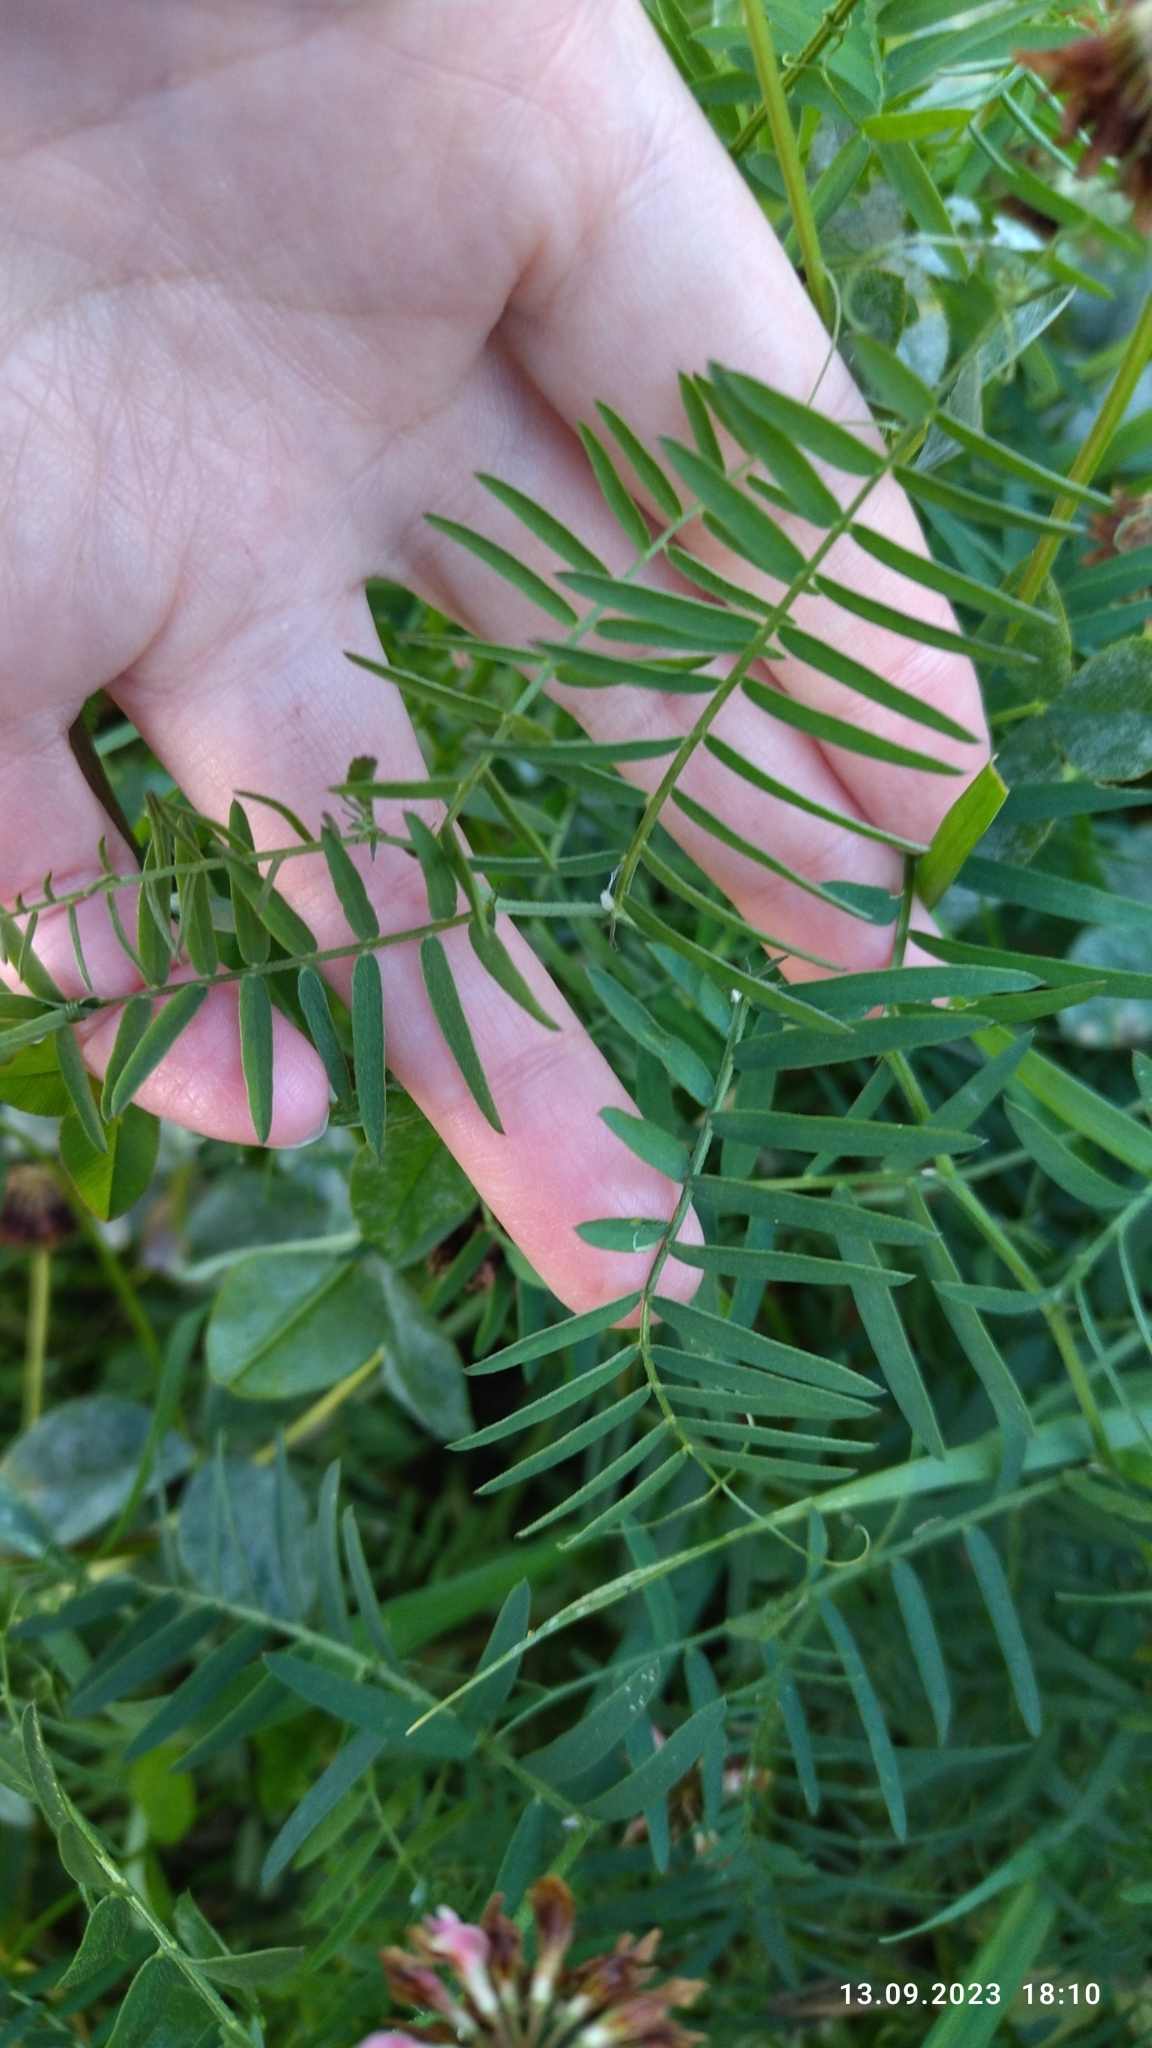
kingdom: Plantae
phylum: Tracheophyta
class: Magnoliopsida
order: Fabales
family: Fabaceae
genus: Vicia
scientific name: Vicia cracca
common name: Bird vetch
